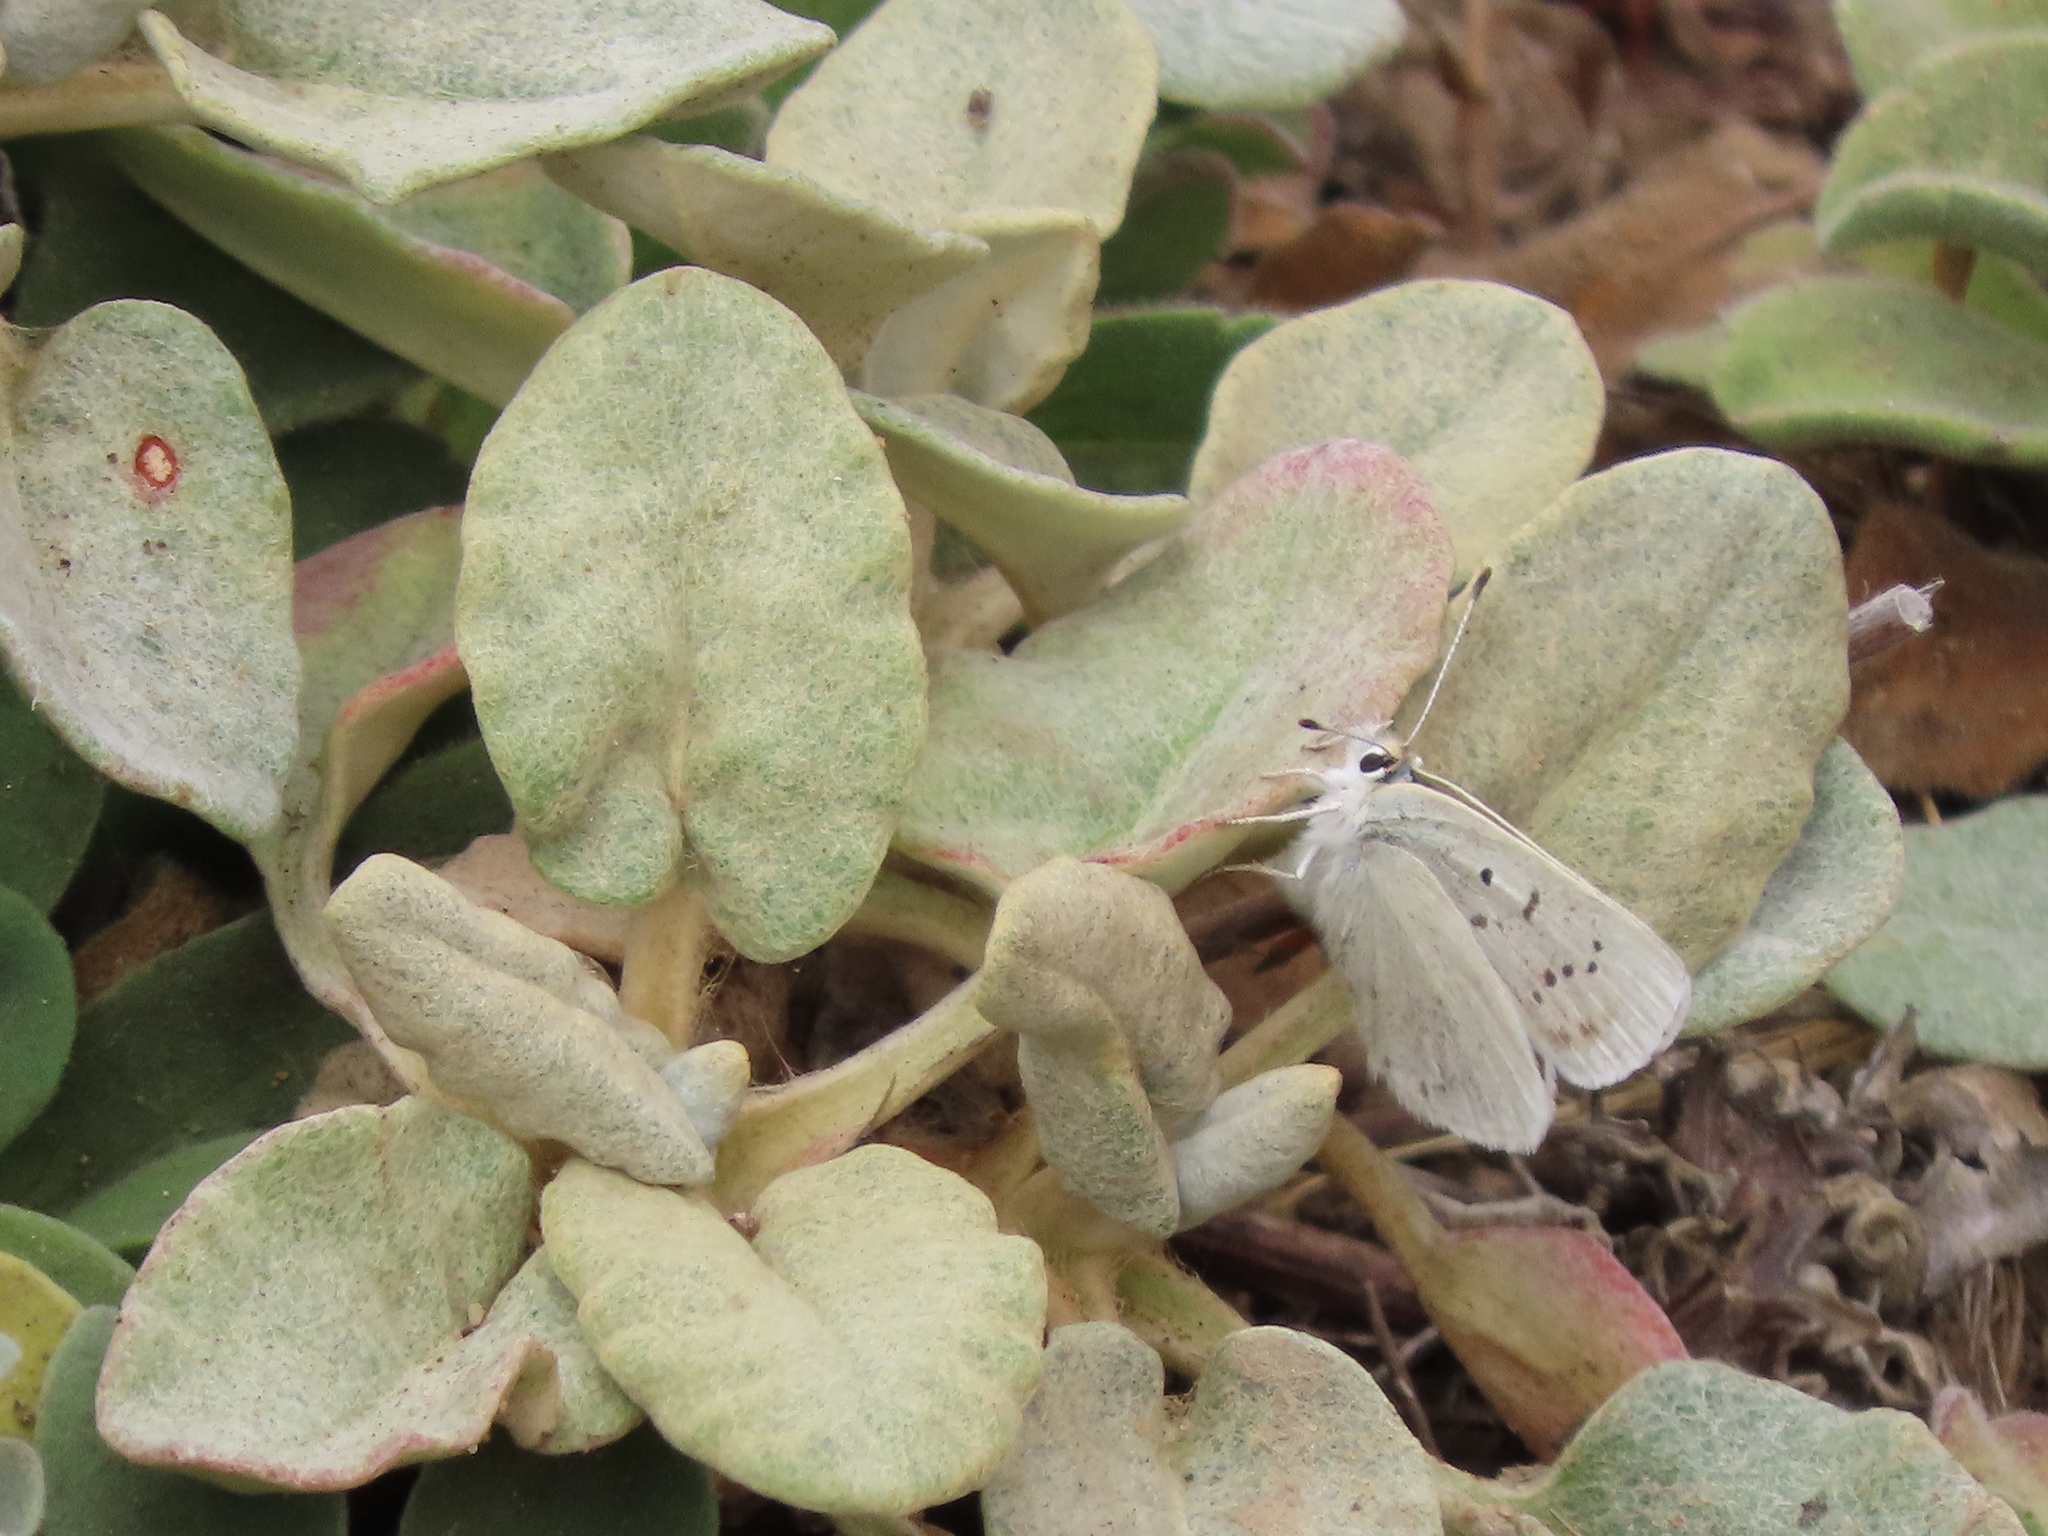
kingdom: Animalia
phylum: Arthropoda
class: Insecta
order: Lepidoptera
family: Lycaenidae
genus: Tharsalea
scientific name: Tharsalea heteronea
